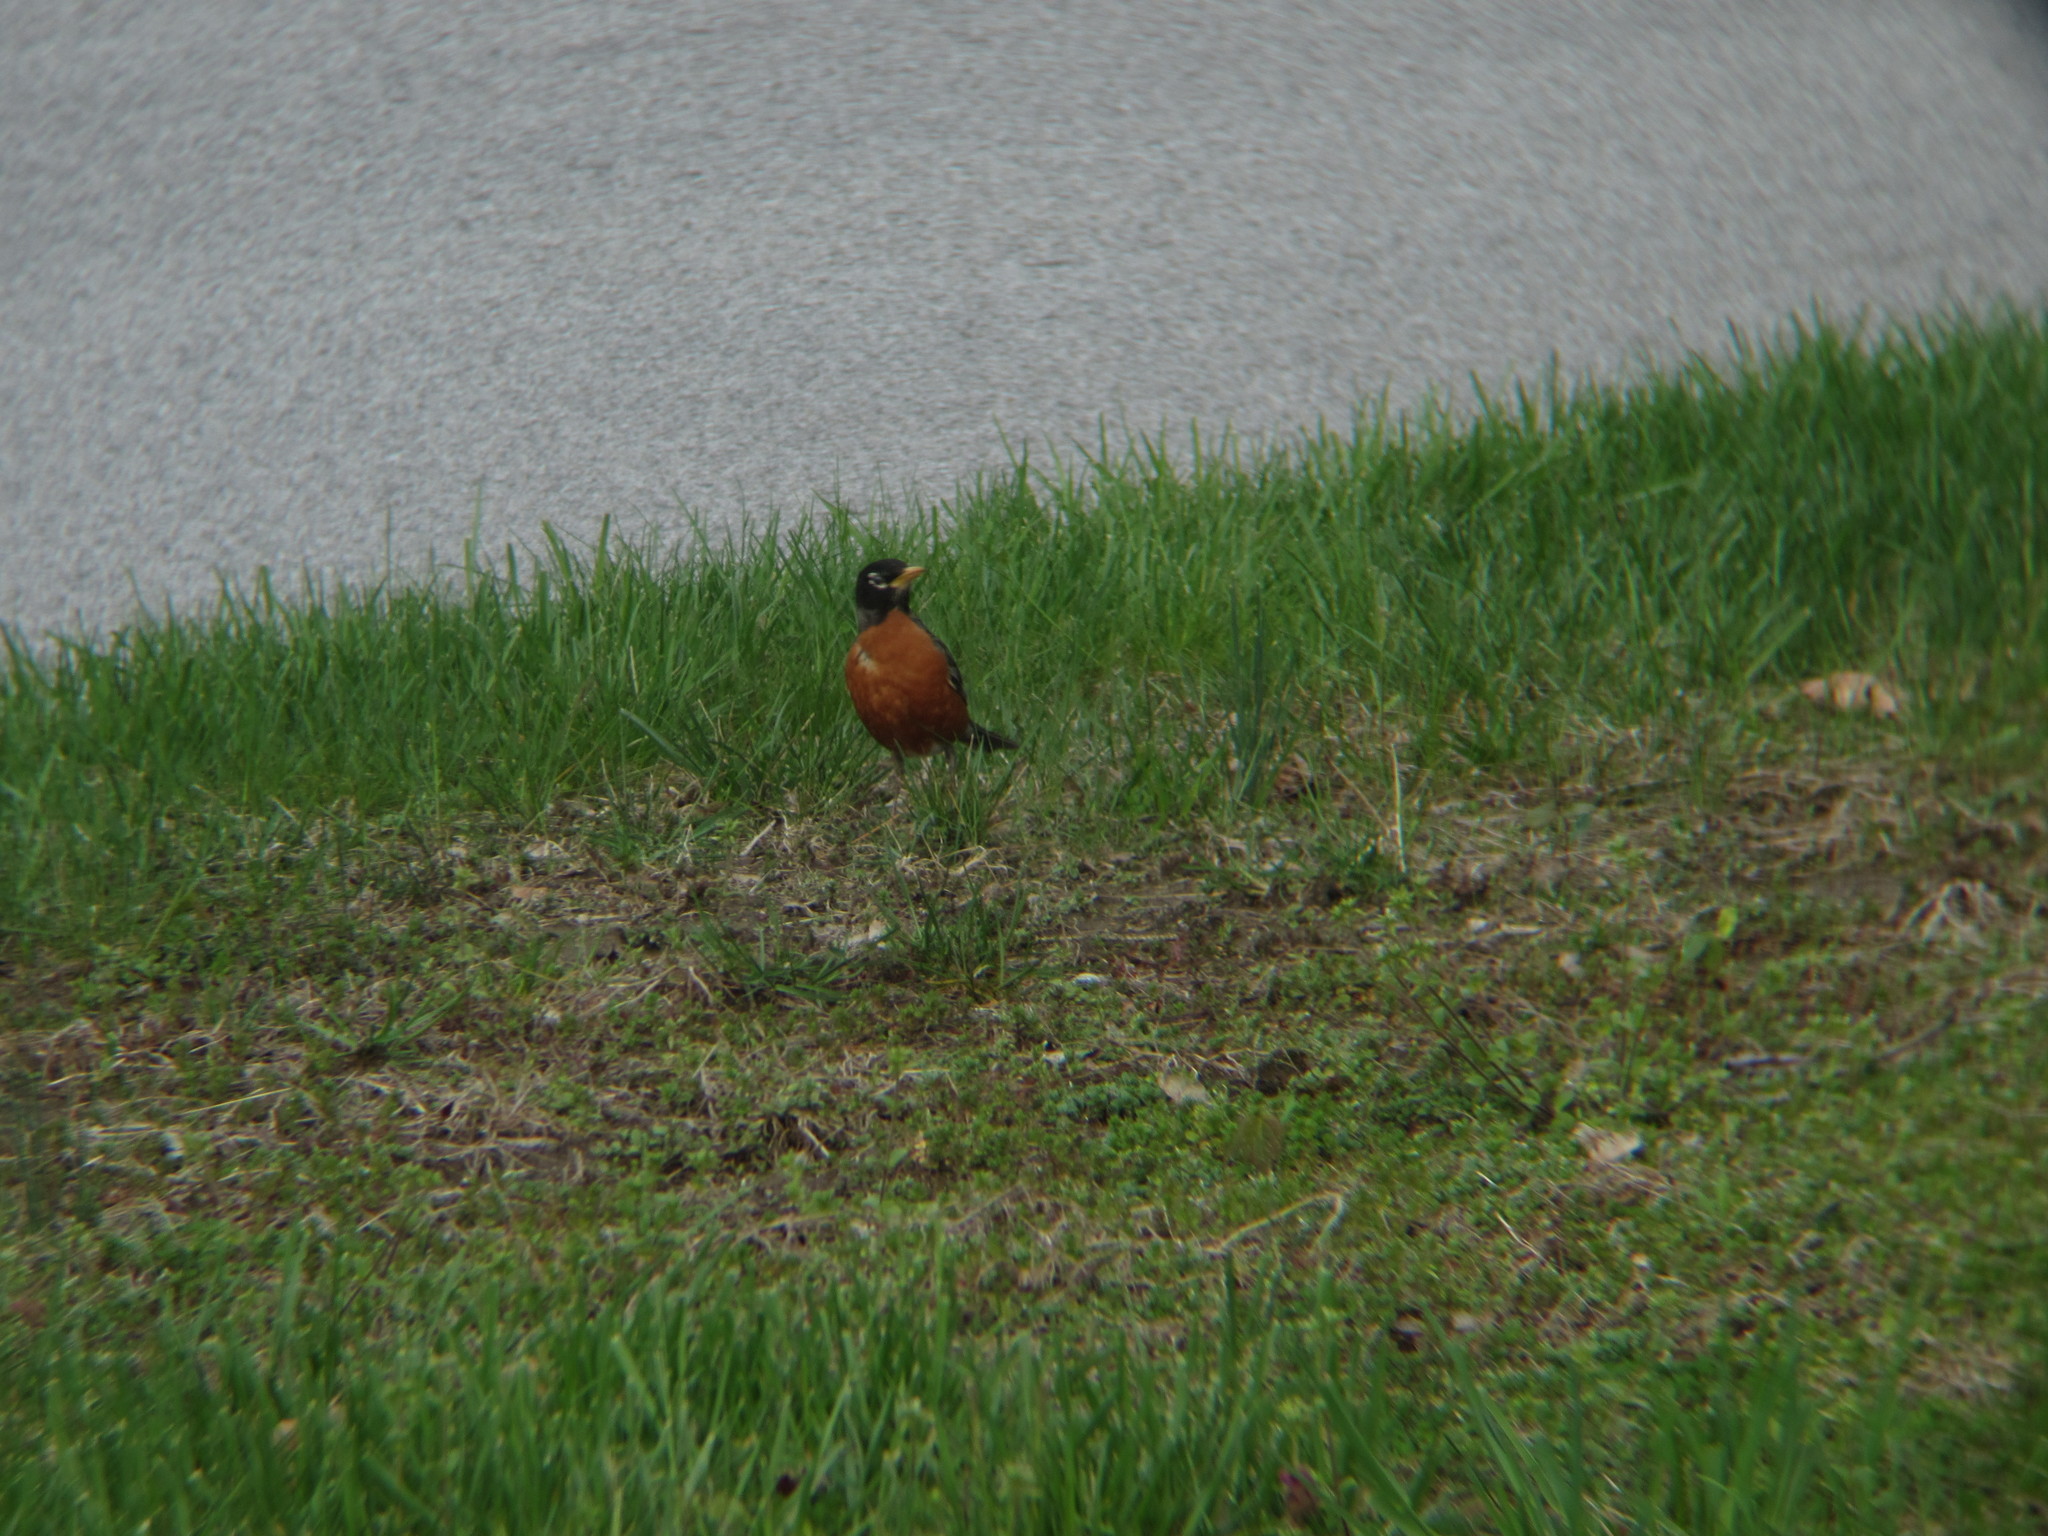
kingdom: Animalia
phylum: Chordata
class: Aves
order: Passeriformes
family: Turdidae
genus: Turdus
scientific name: Turdus migratorius
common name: American robin
